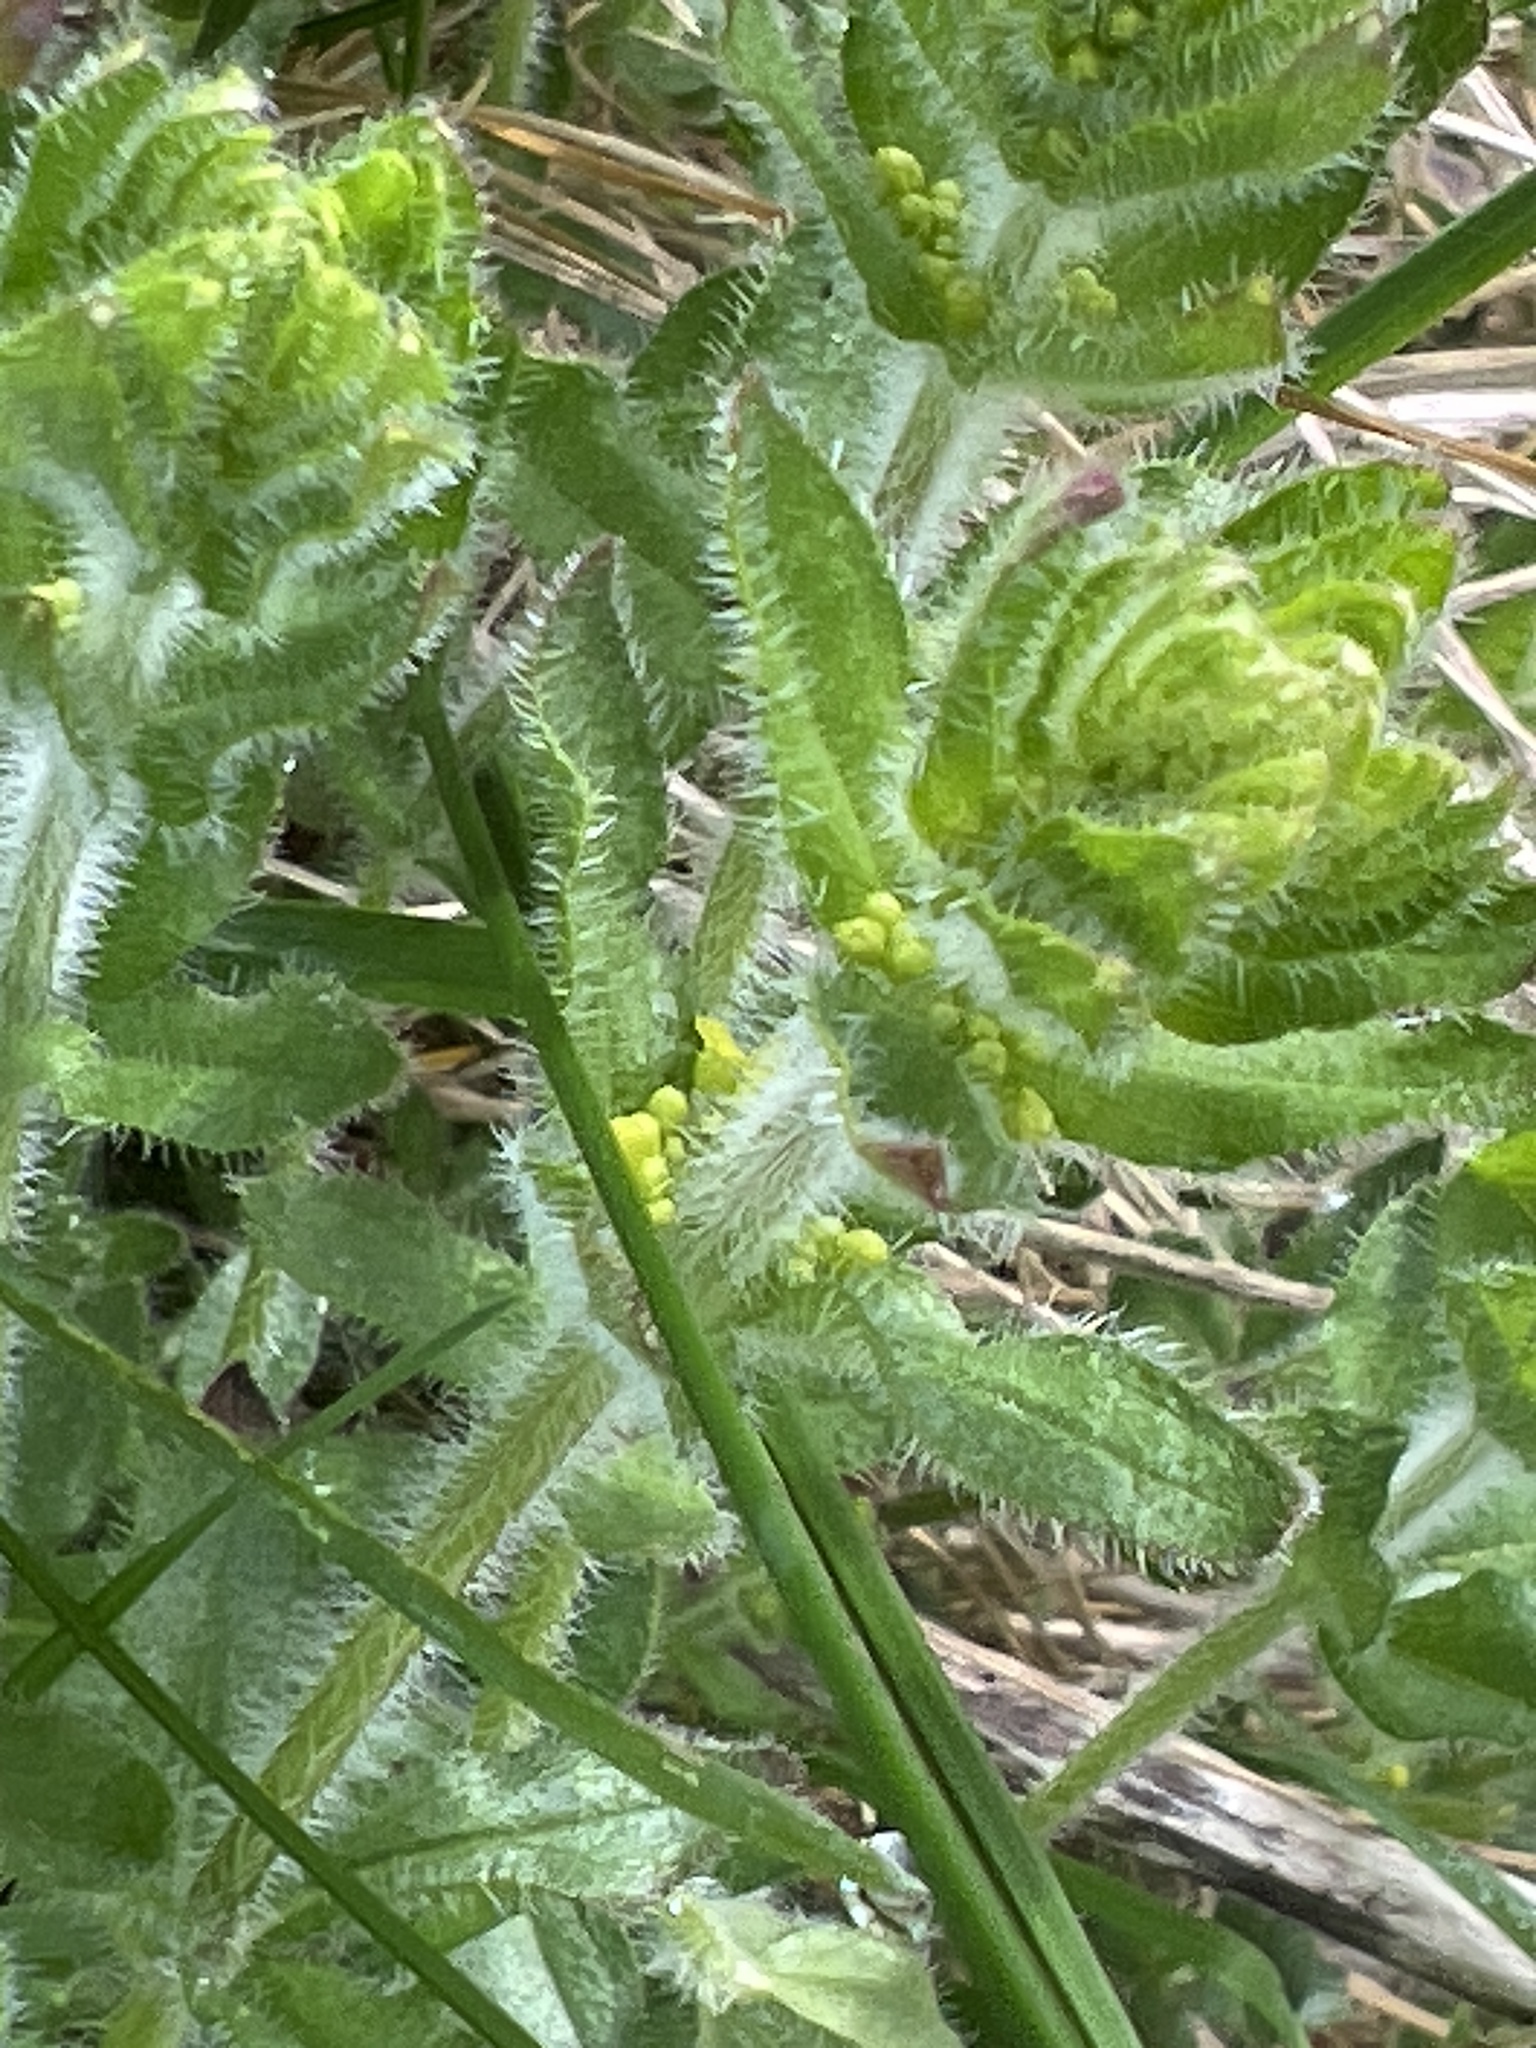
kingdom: Plantae
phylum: Tracheophyta
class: Magnoliopsida
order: Gentianales
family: Rubiaceae
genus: Cruciata
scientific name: Cruciata laevipes
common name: Crosswort
